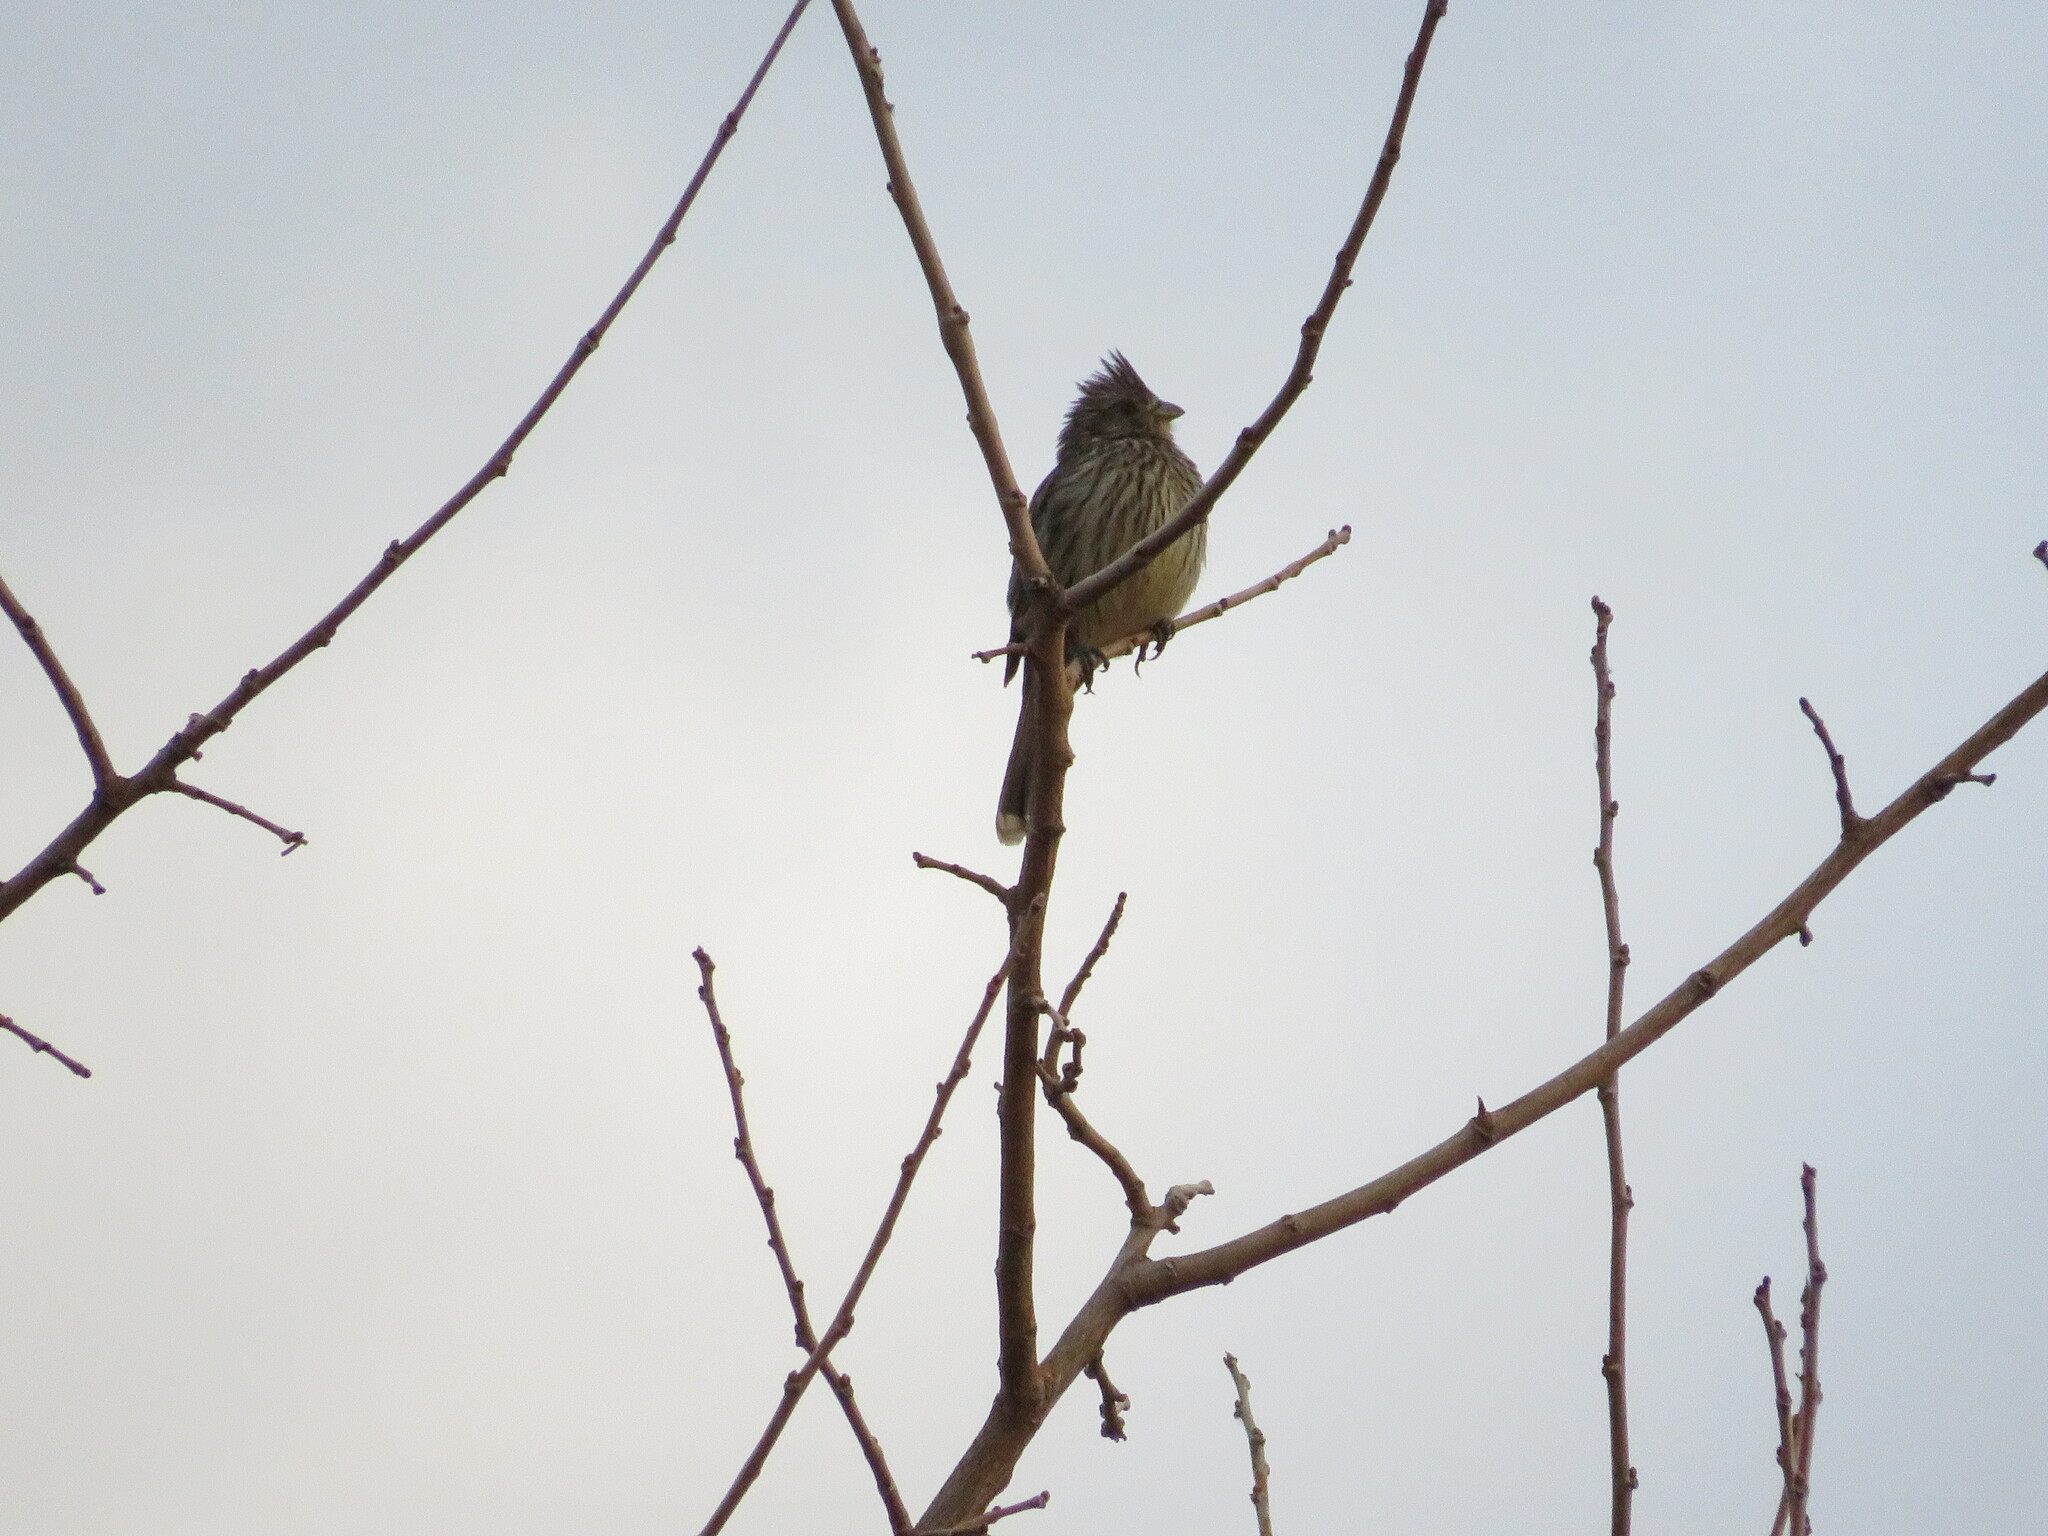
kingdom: Animalia
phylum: Chordata
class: Aves
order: Passeriformes
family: Cotingidae
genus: Phytotoma
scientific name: Phytotoma rutila
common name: White-tipped plantcutter
